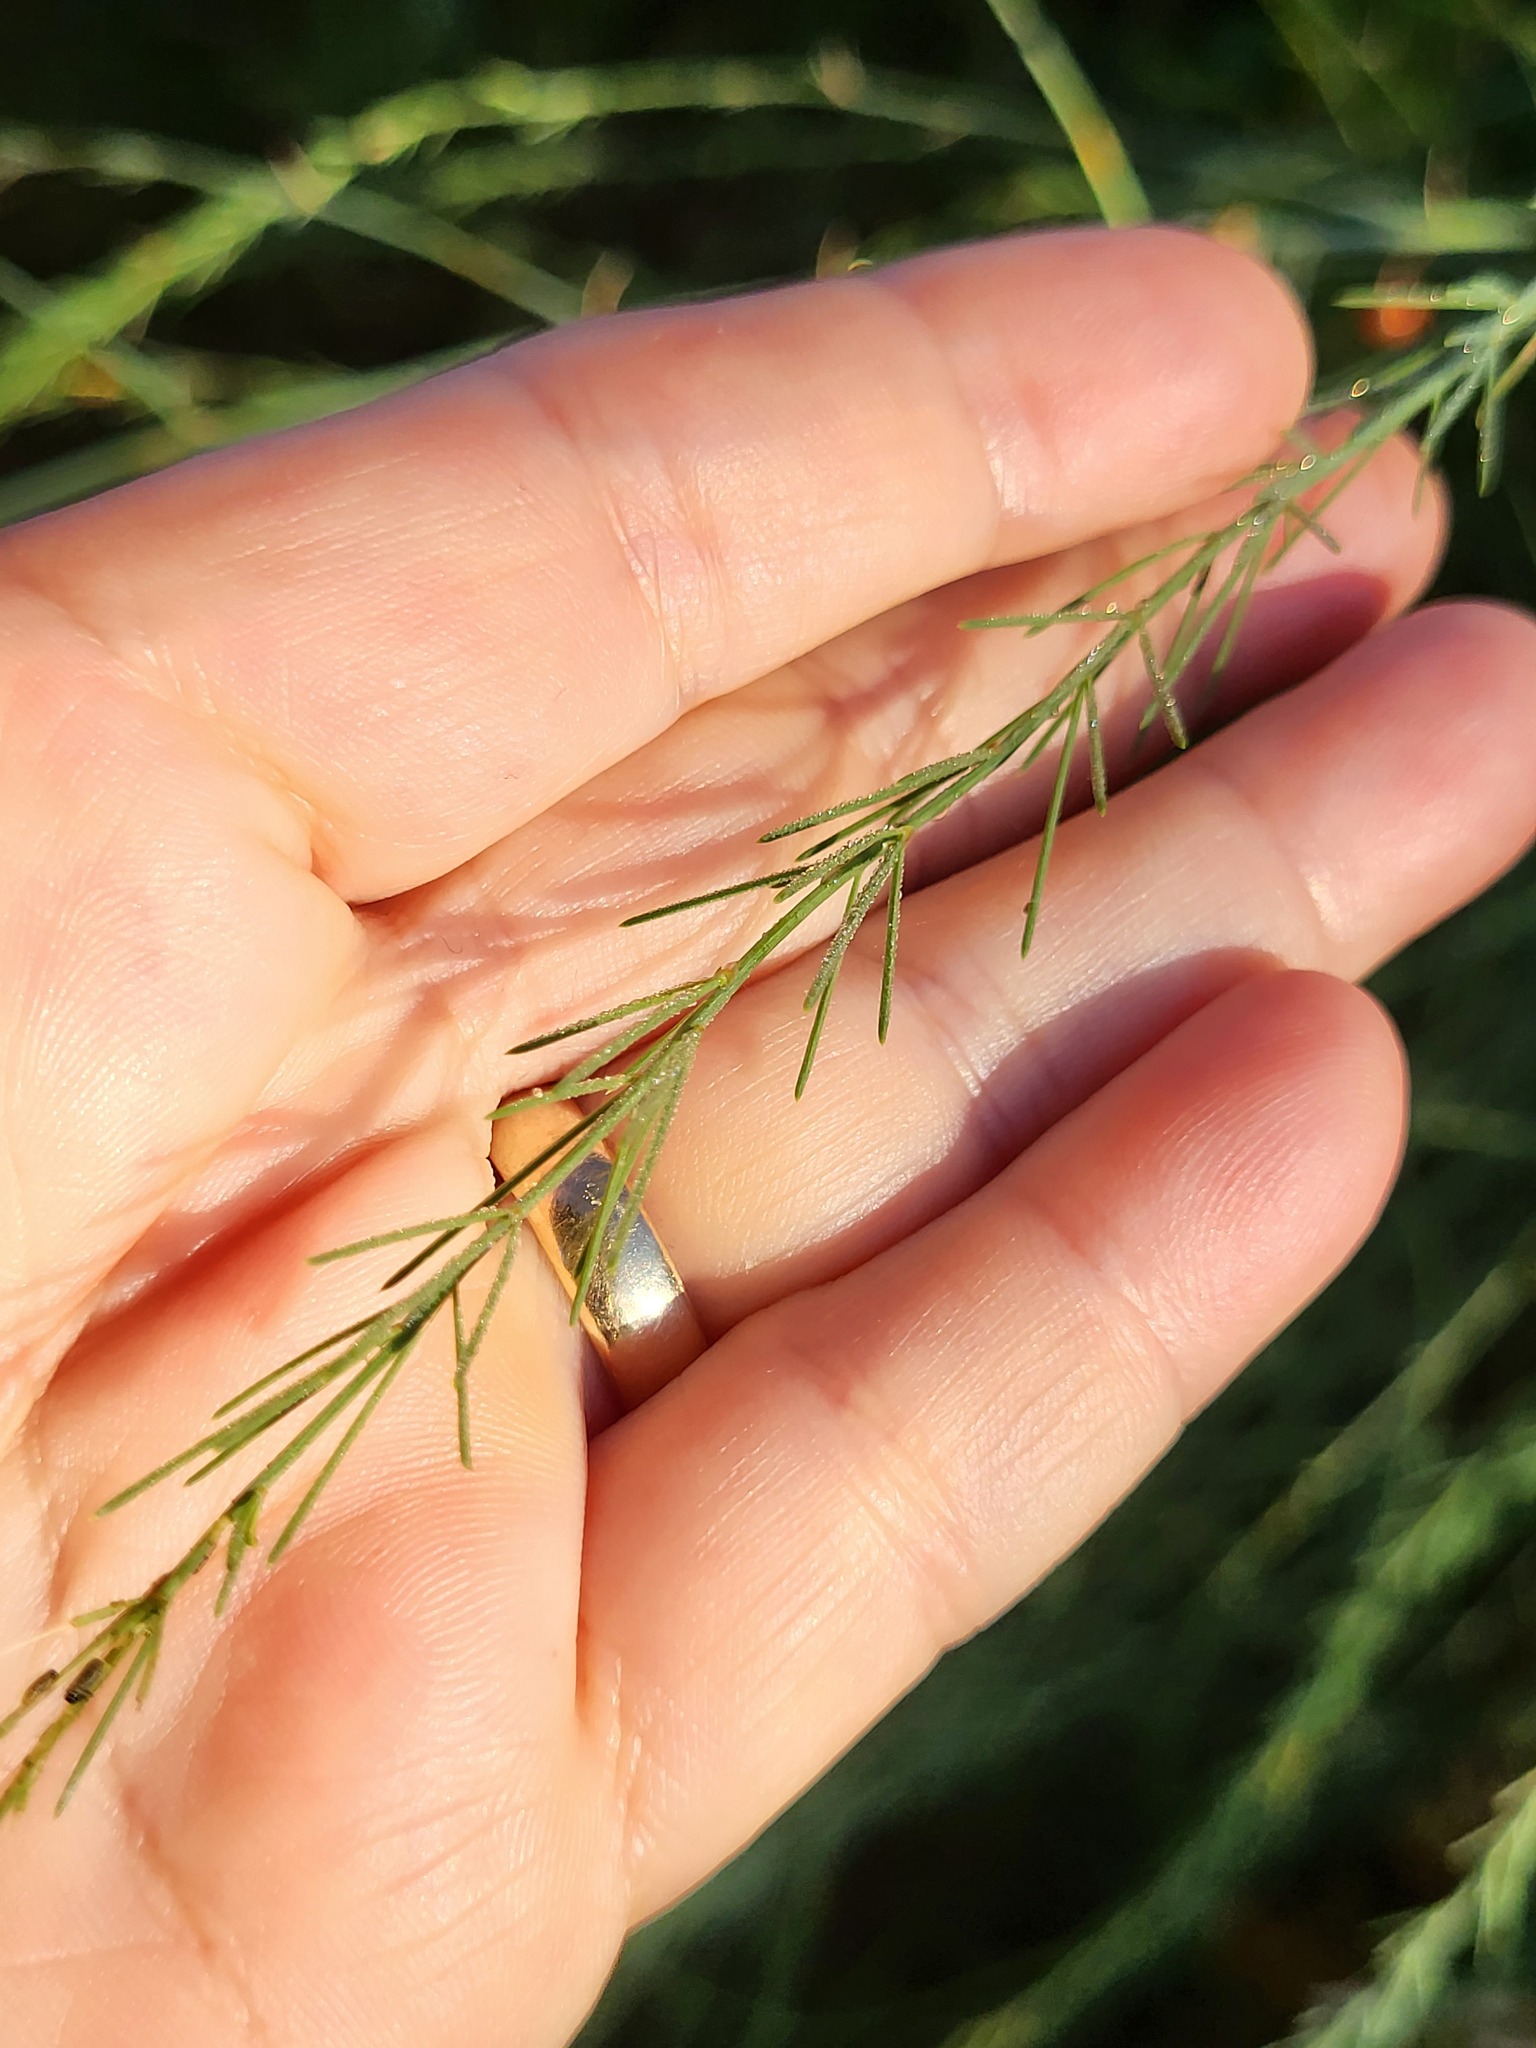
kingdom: Plantae
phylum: Tracheophyta
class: Liliopsida
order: Asparagales
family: Asparagaceae
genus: Asparagus
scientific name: Asparagus officinalis
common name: Garden asparagus
